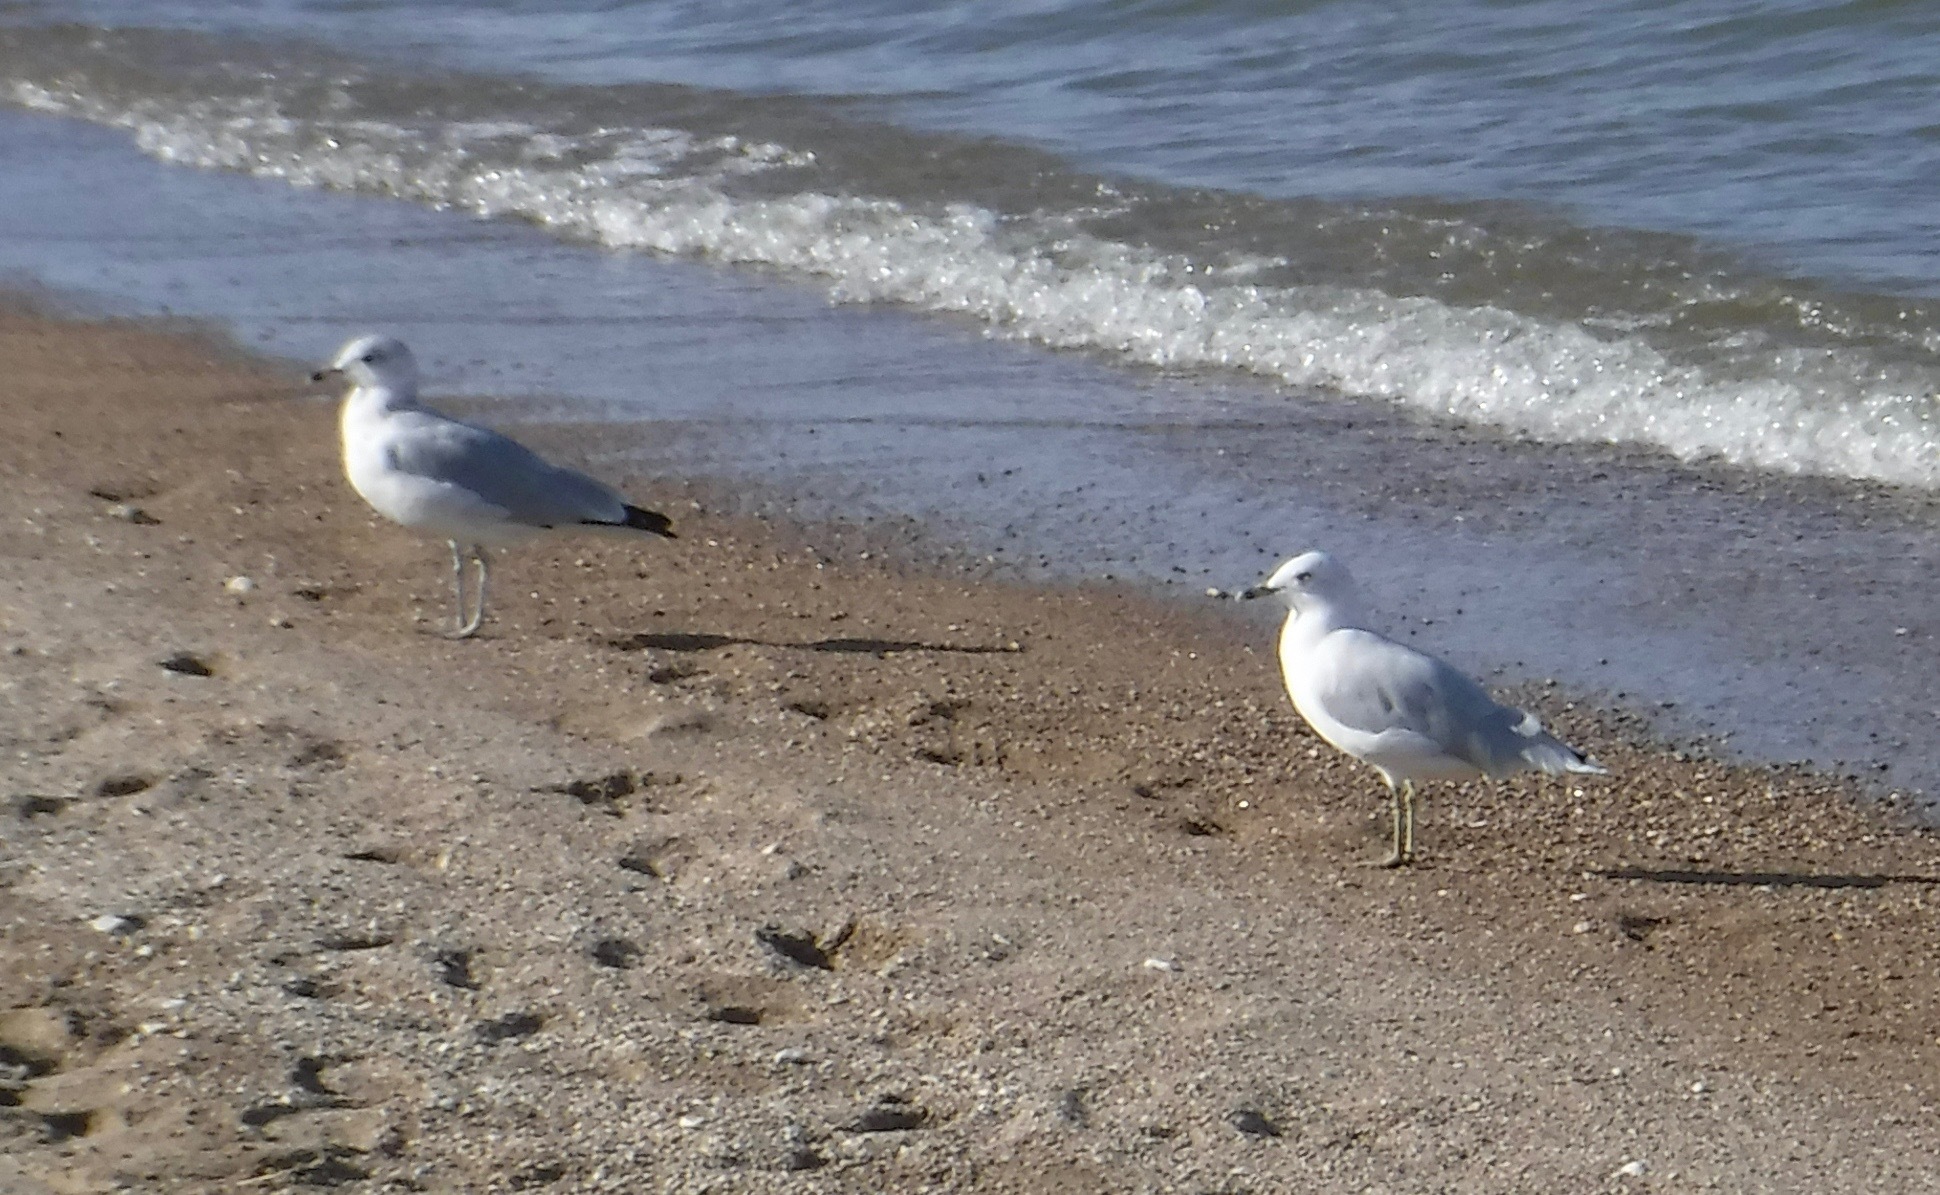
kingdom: Animalia
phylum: Chordata
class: Aves
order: Charadriiformes
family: Laridae
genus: Larus
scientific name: Larus delawarensis
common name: Ring-billed gull
